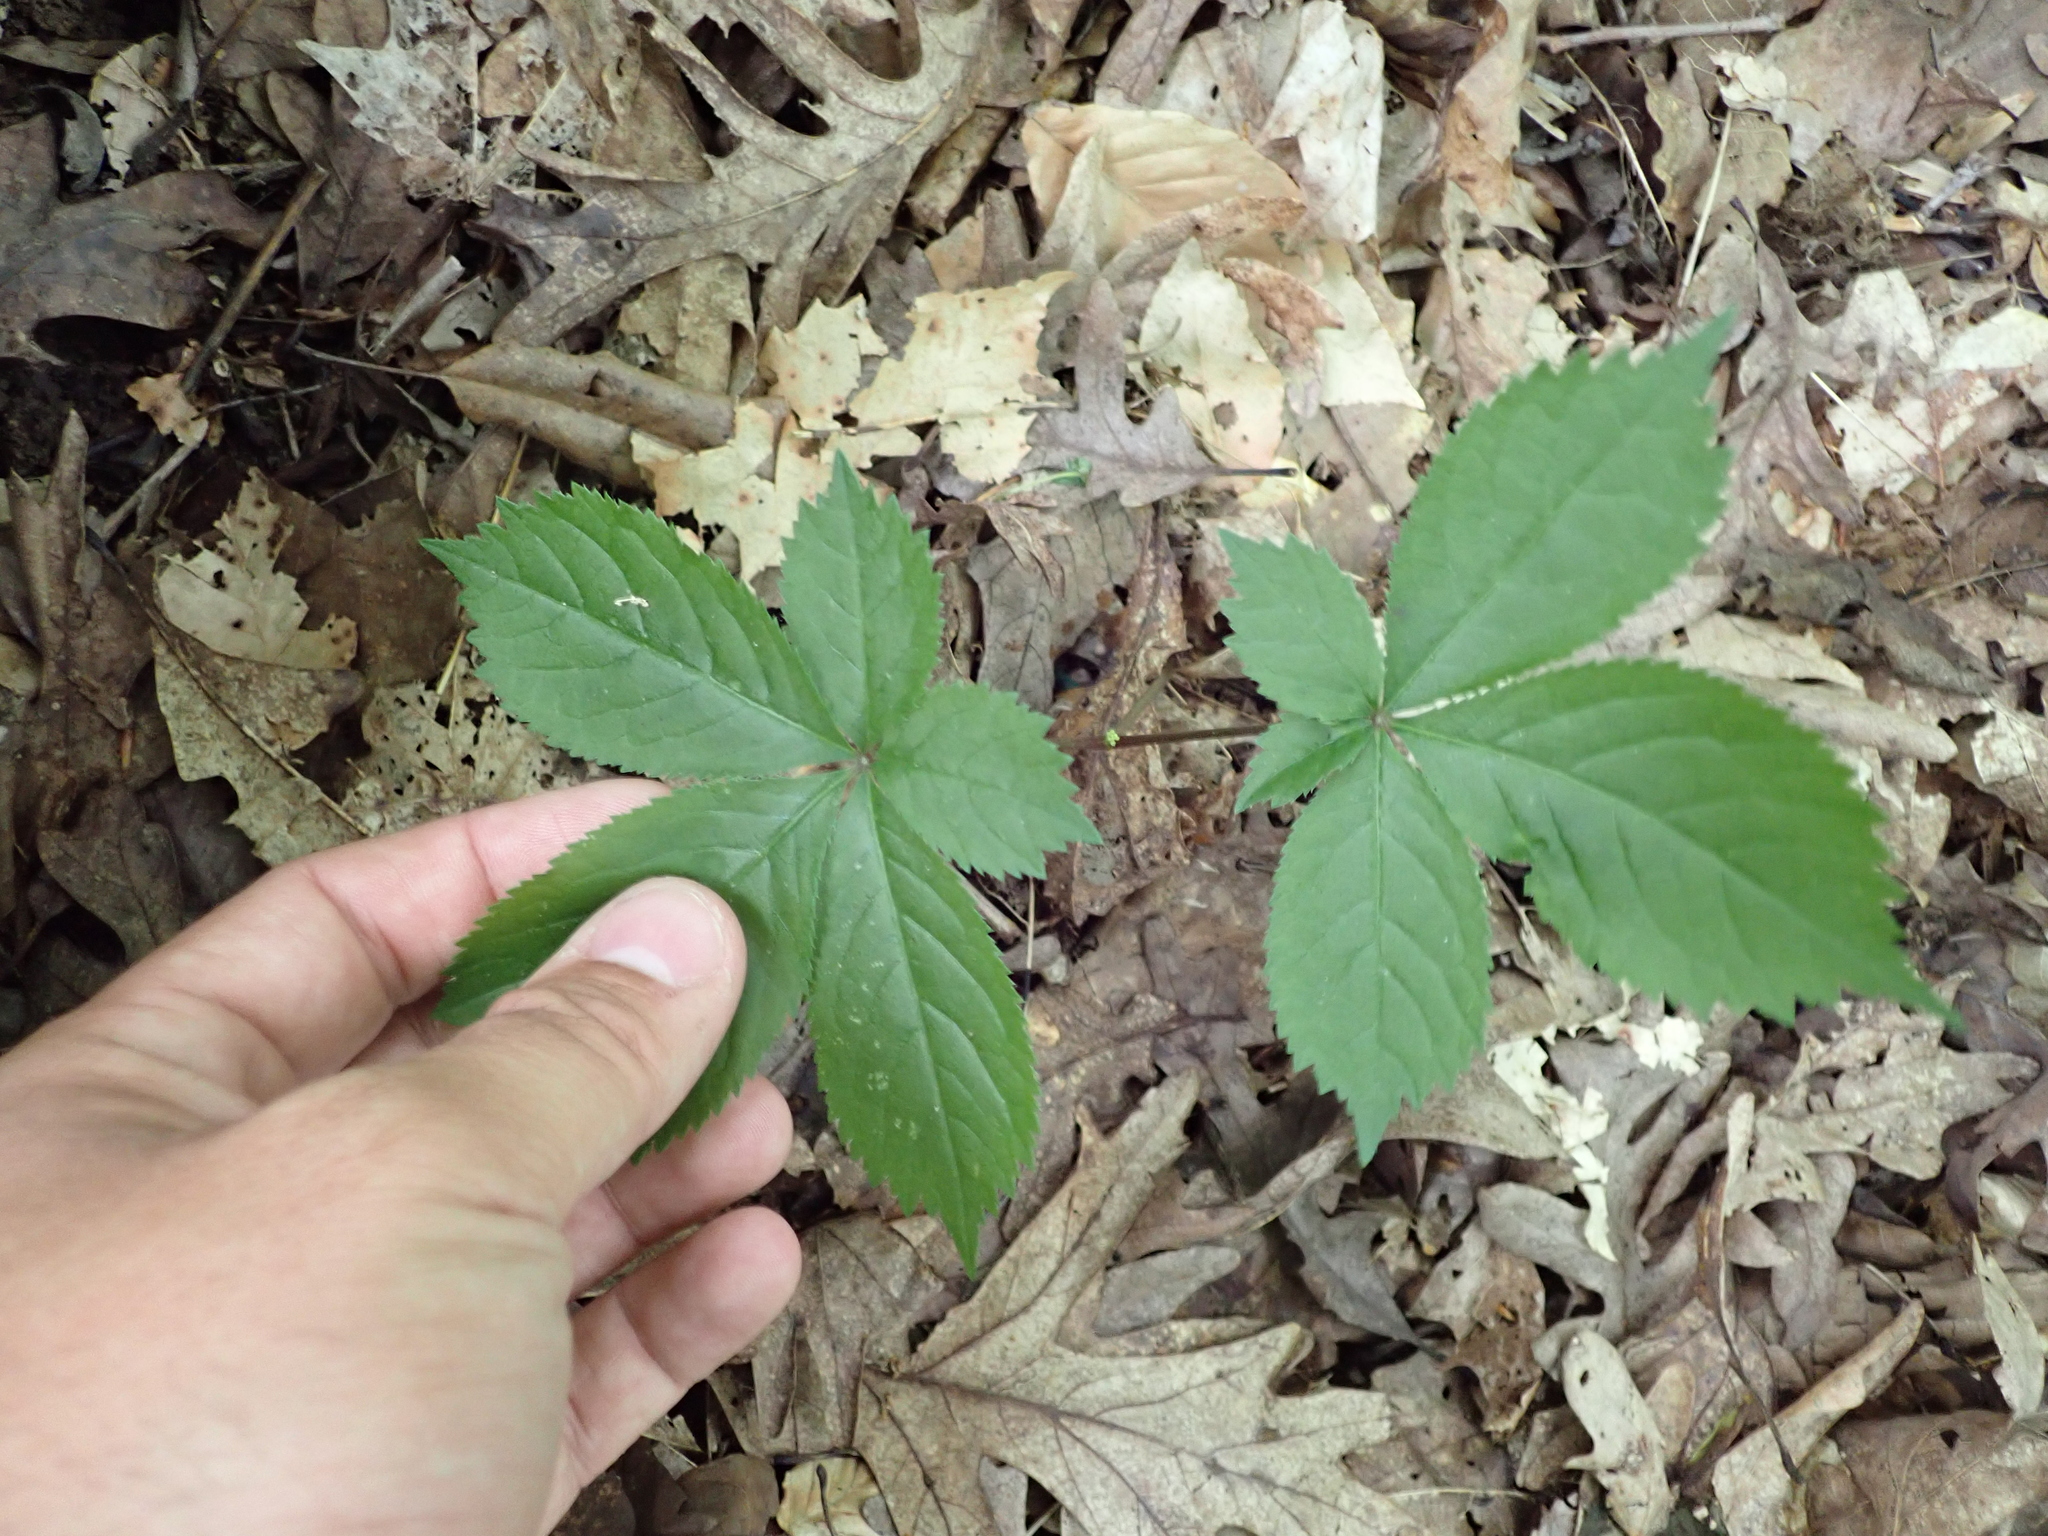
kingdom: Plantae
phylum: Tracheophyta
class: Magnoliopsida
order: Apiales
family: Araliaceae
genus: Panax
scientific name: Panax quinquefolius
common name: American ginseng
